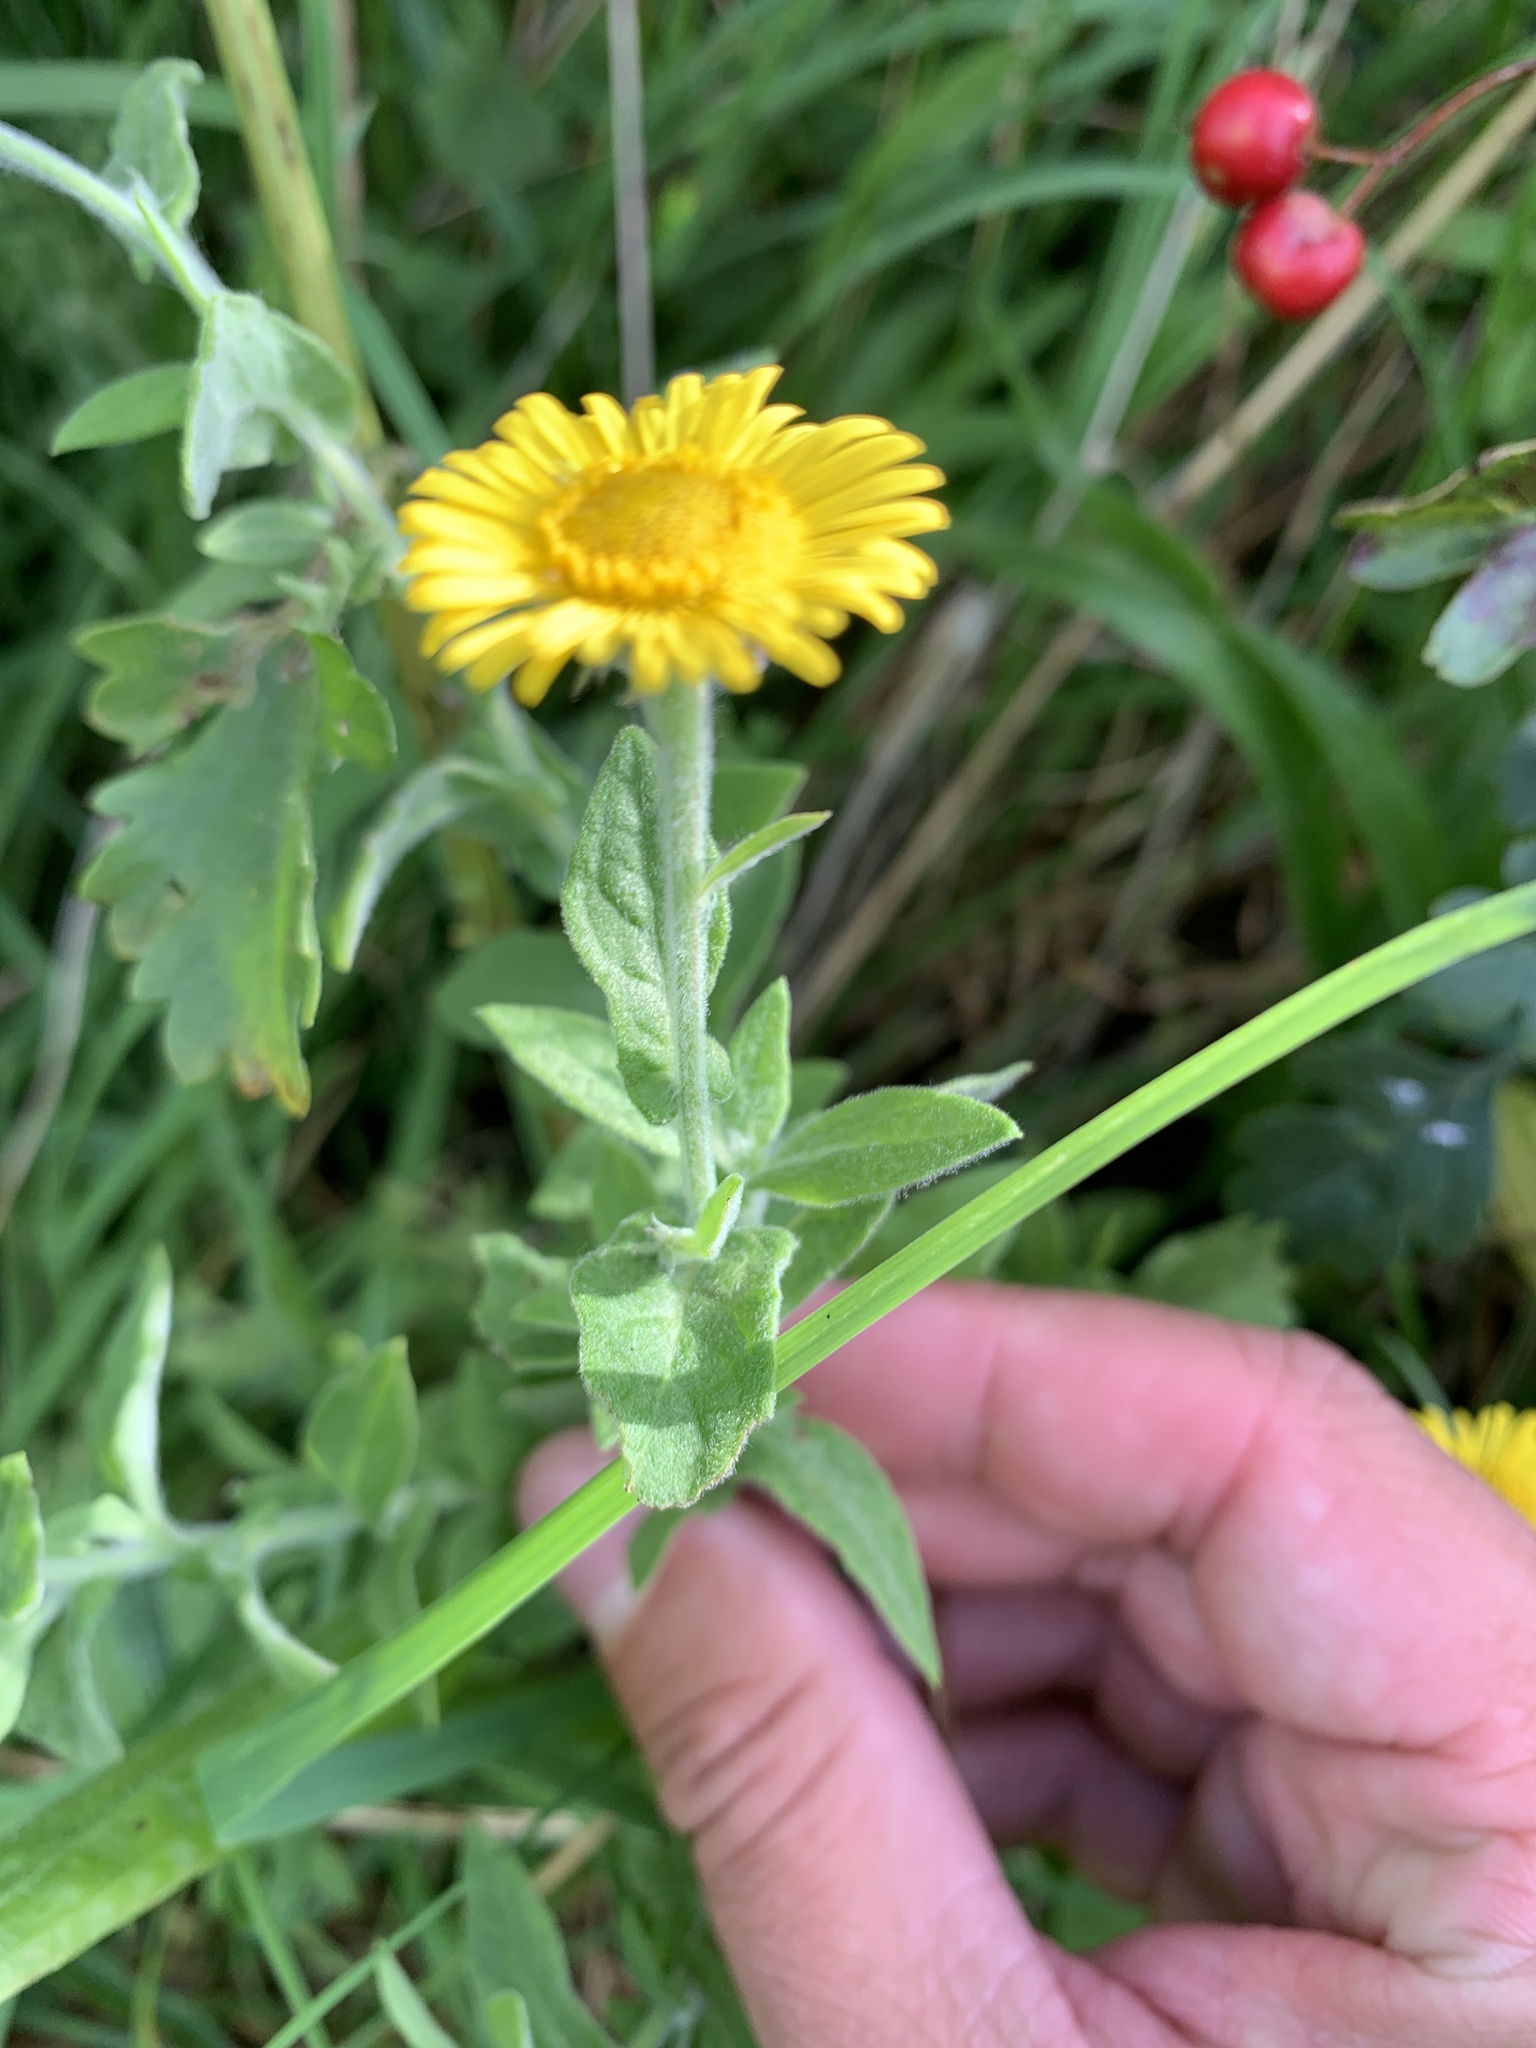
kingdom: Plantae
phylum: Tracheophyta
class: Magnoliopsida
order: Asterales
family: Asteraceae
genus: Pulicaria
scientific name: Pulicaria dysenterica
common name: Common fleabane
